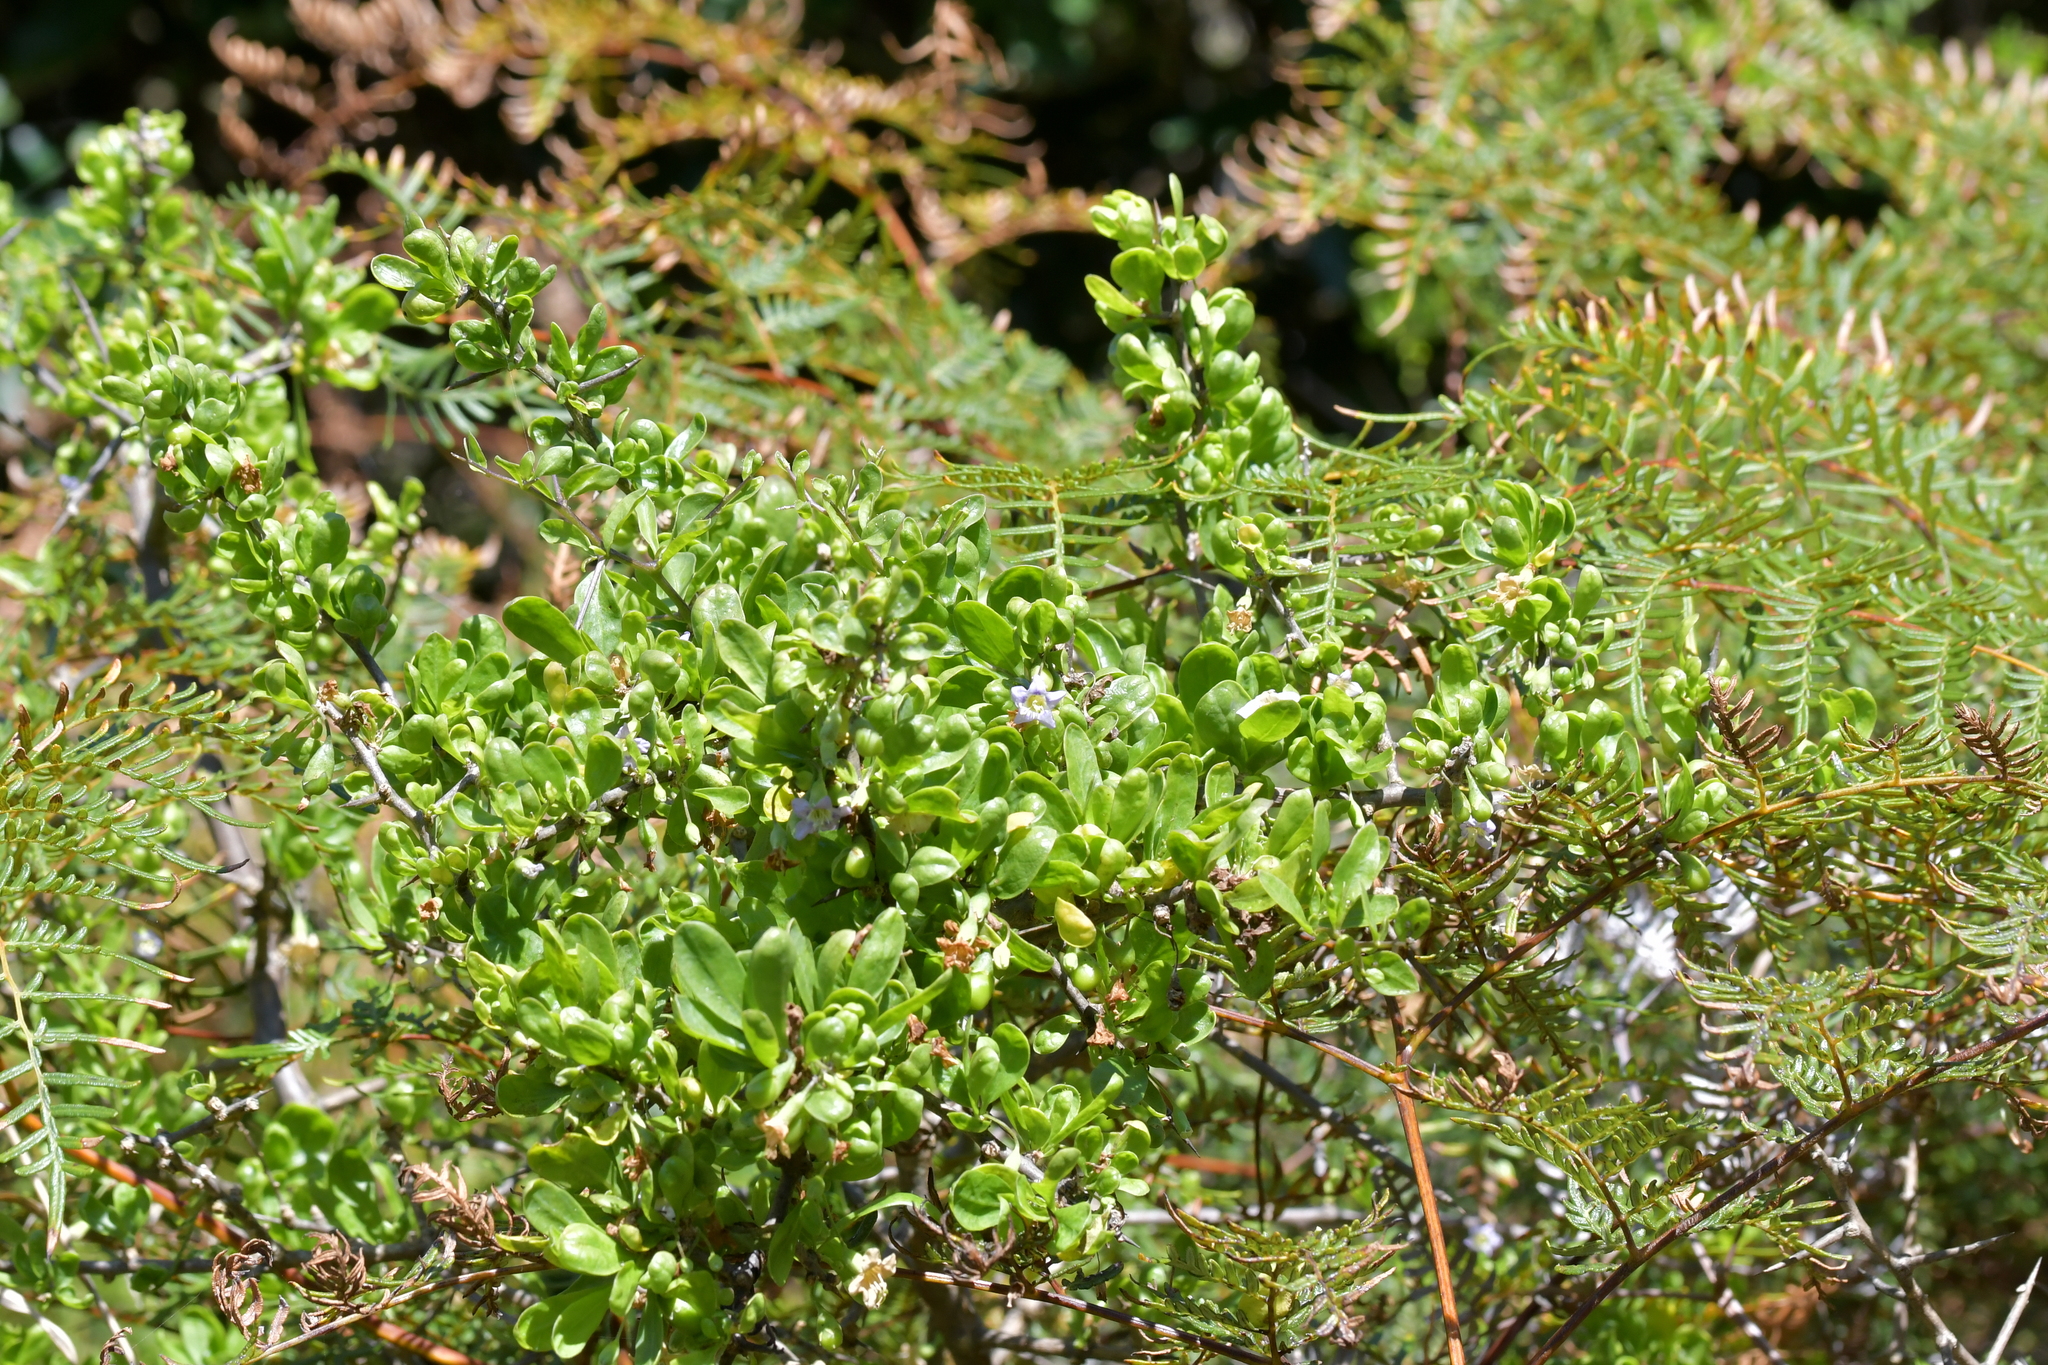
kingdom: Plantae
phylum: Tracheophyta
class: Magnoliopsida
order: Solanales
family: Solanaceae
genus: Lycium
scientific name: Lycium ferocissimum
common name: African boxthorn
